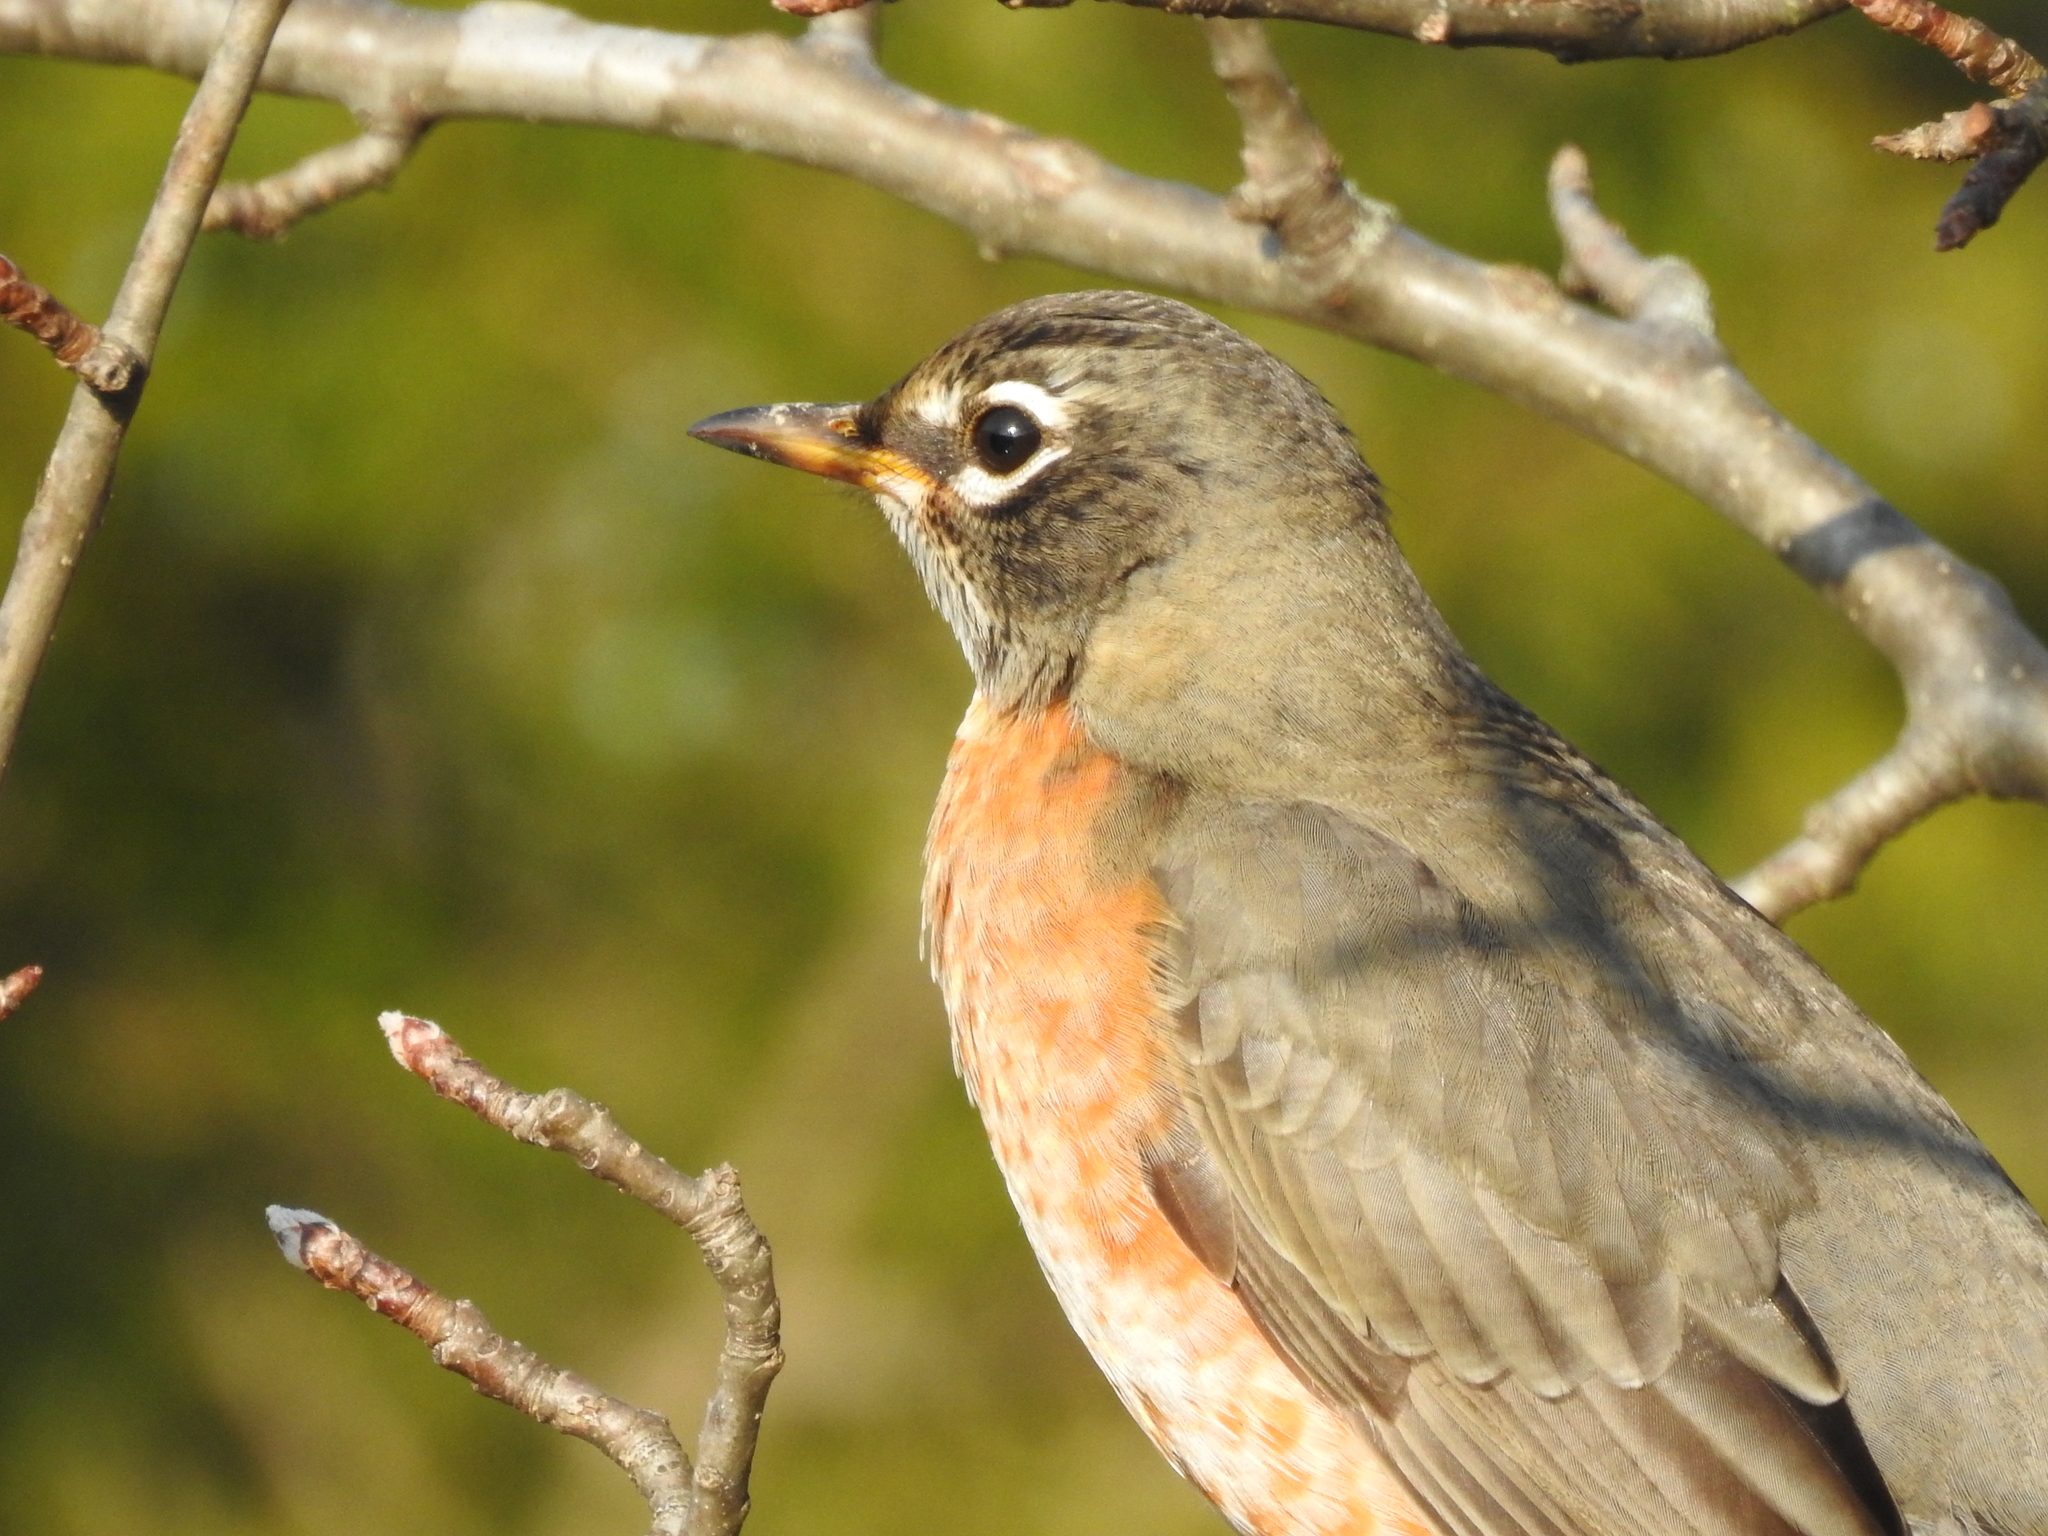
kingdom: Animalia
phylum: Chordata
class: Aves
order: Passeriformes
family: Turdidae
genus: Turdus
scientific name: Turdus migratorius
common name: American robin
